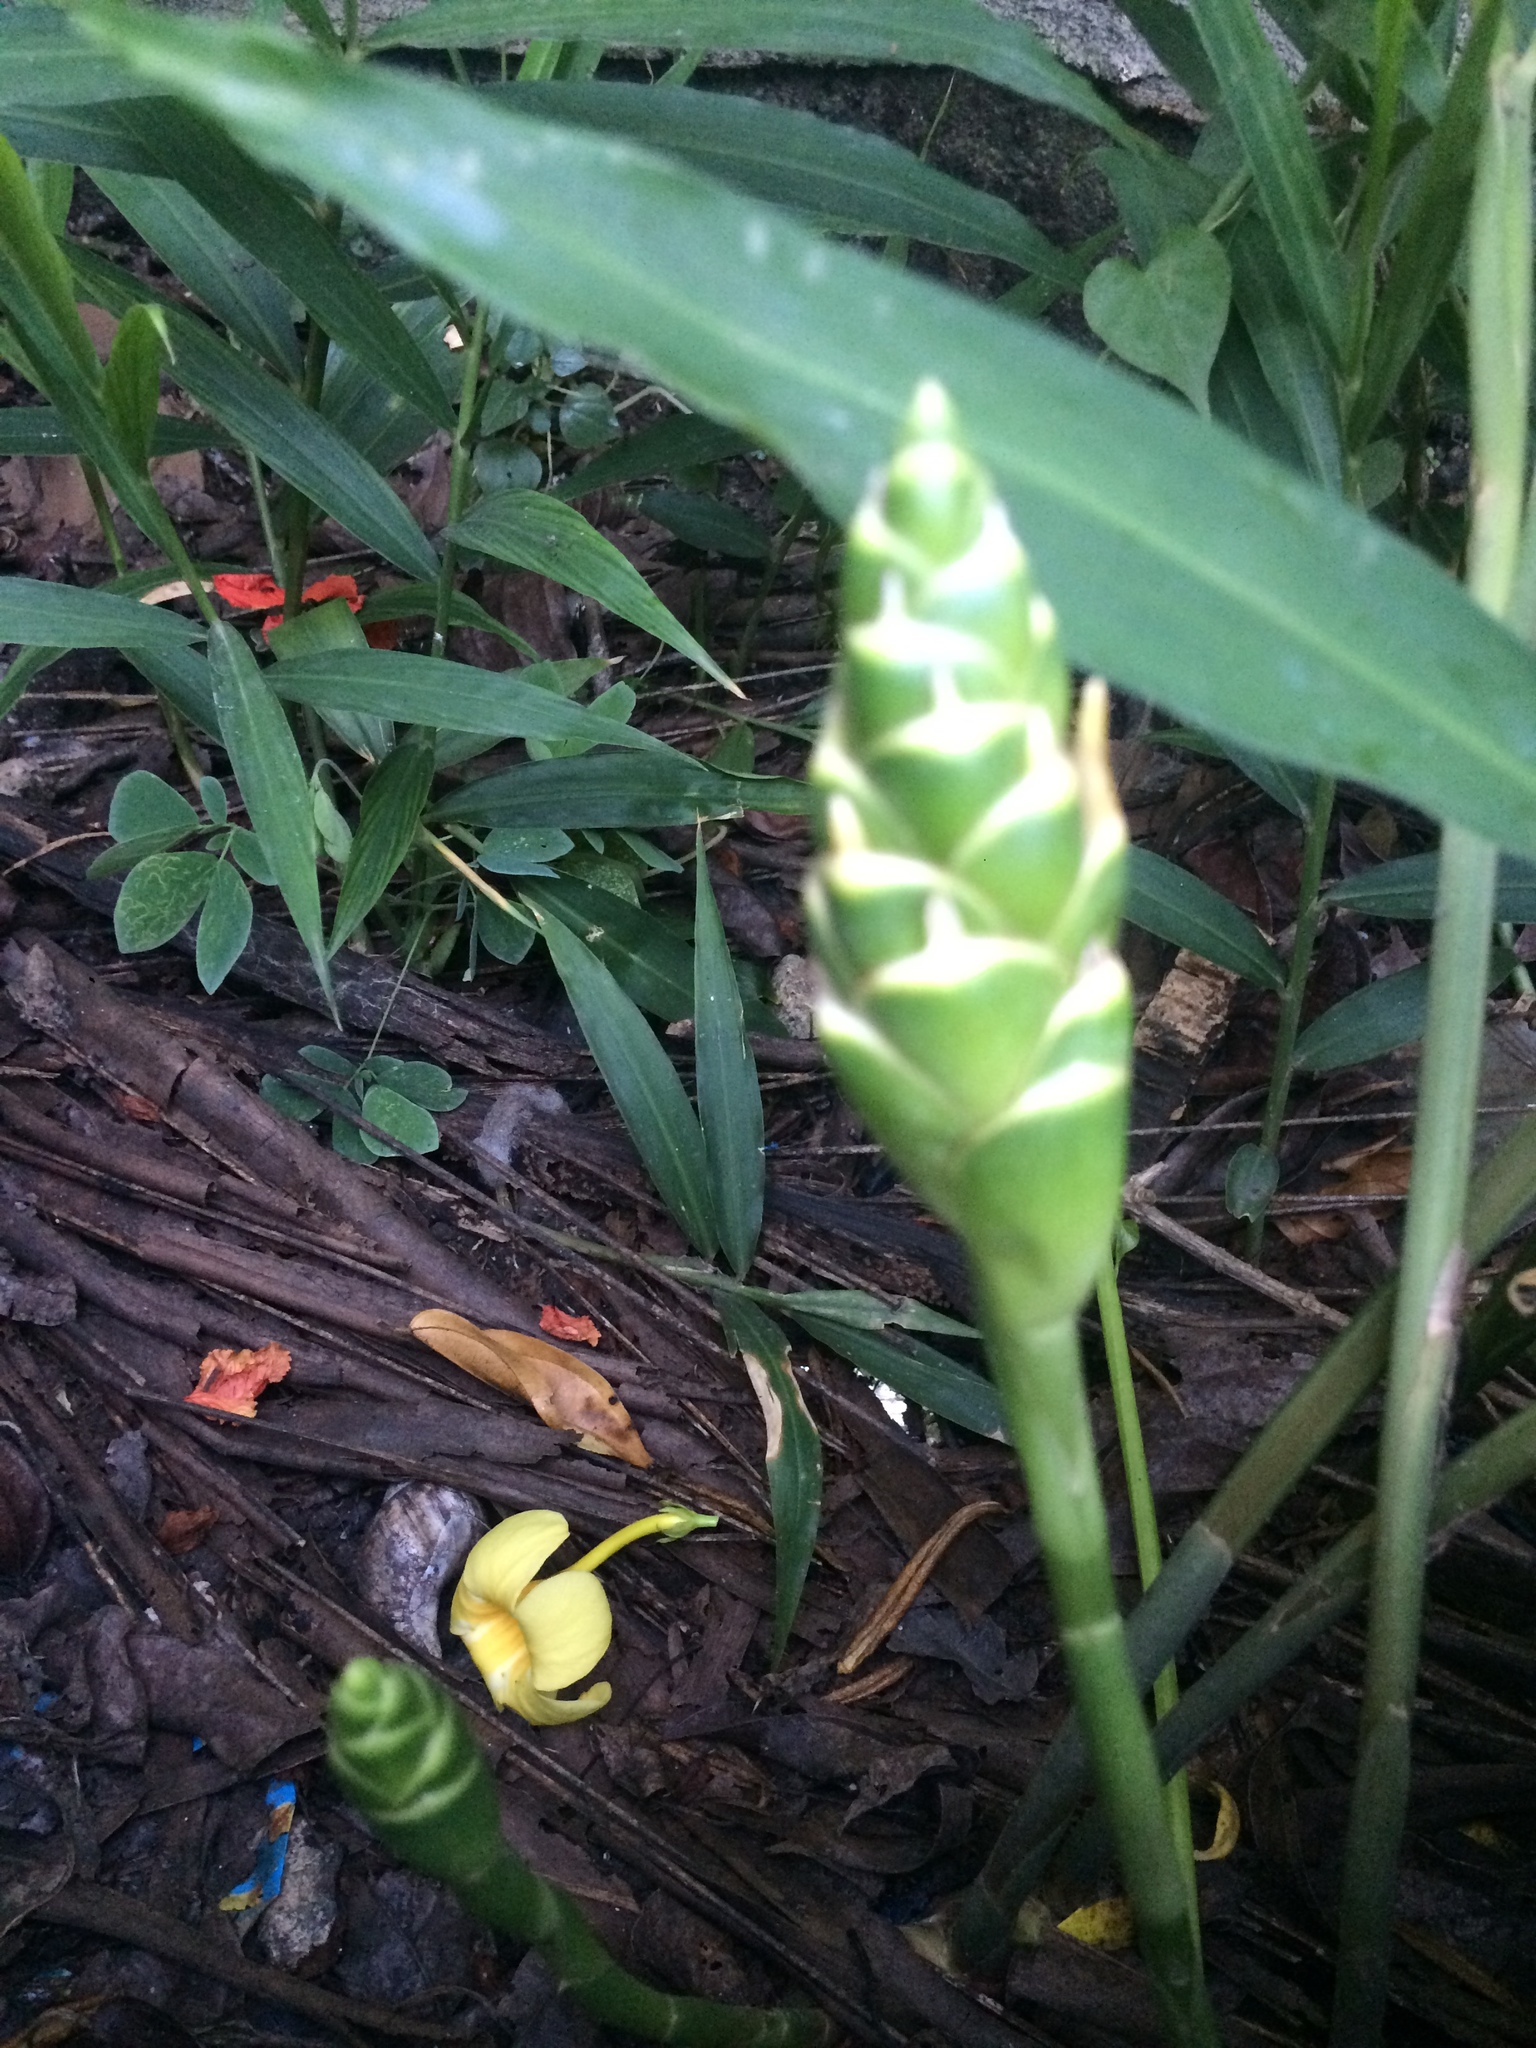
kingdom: Plantae
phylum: Tracheophyta
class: Liliopsida
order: Zingiberales
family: Zingiberaceae
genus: Zingiber
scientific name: Zingiber officinale
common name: Ginger
